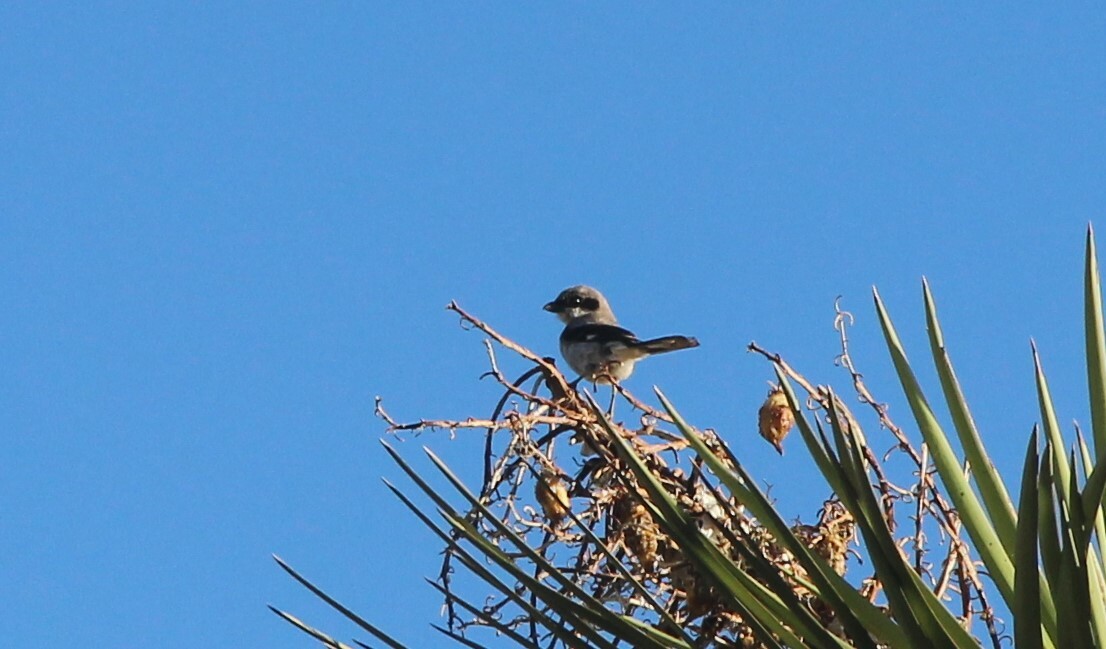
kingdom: Animalia
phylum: Chordata
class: Aves
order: Passeriformes
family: Laniidae
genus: Lanius
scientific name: Lanius ludovicianus
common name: Loggerhead shrike
